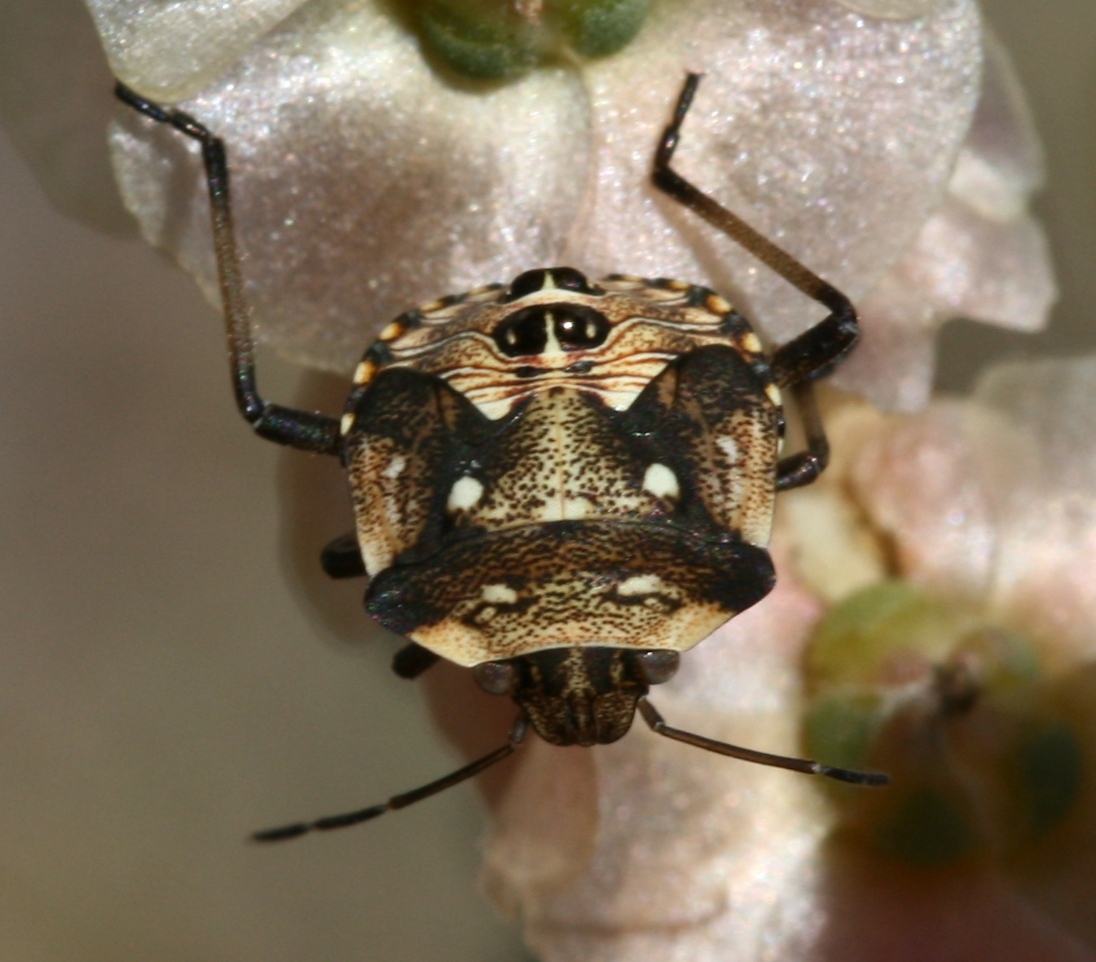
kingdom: Animalia
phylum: Arthropoda
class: Insecta
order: Hemiptera
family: Pentatomidae
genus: Croantha
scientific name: Croantha ornatula
